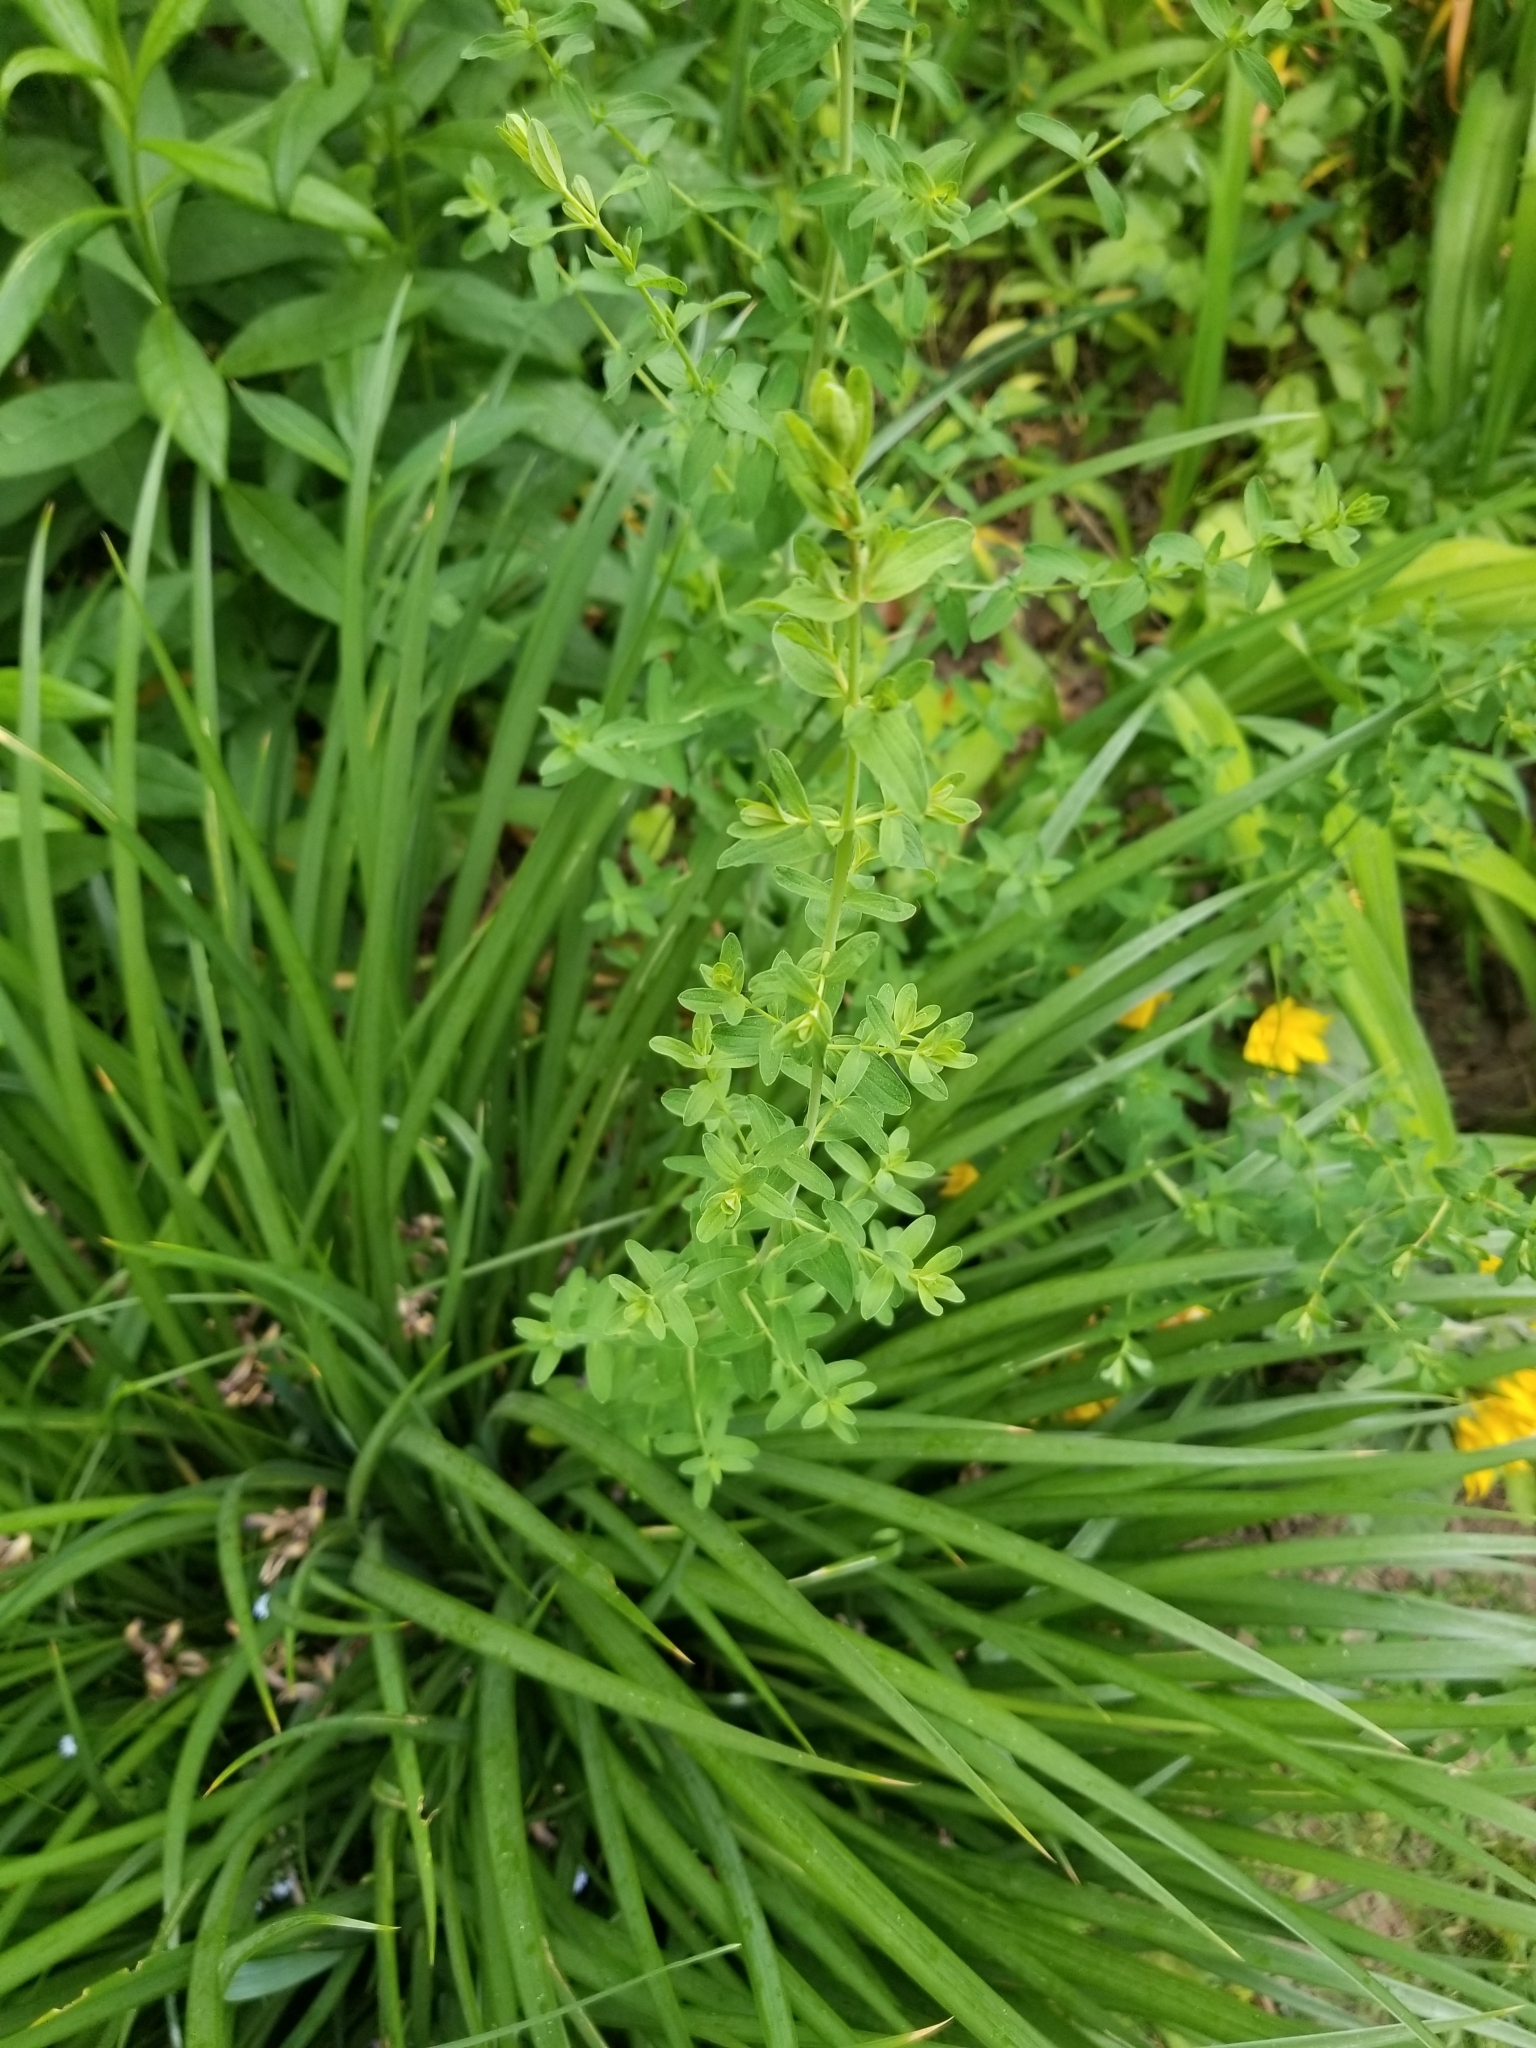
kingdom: Plantae
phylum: Tracheophyta
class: Magnoliopsida
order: Malpighiales
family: Hypericaceae
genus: Hypericum
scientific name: Hypericum perforatum
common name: Common st. johnswort
